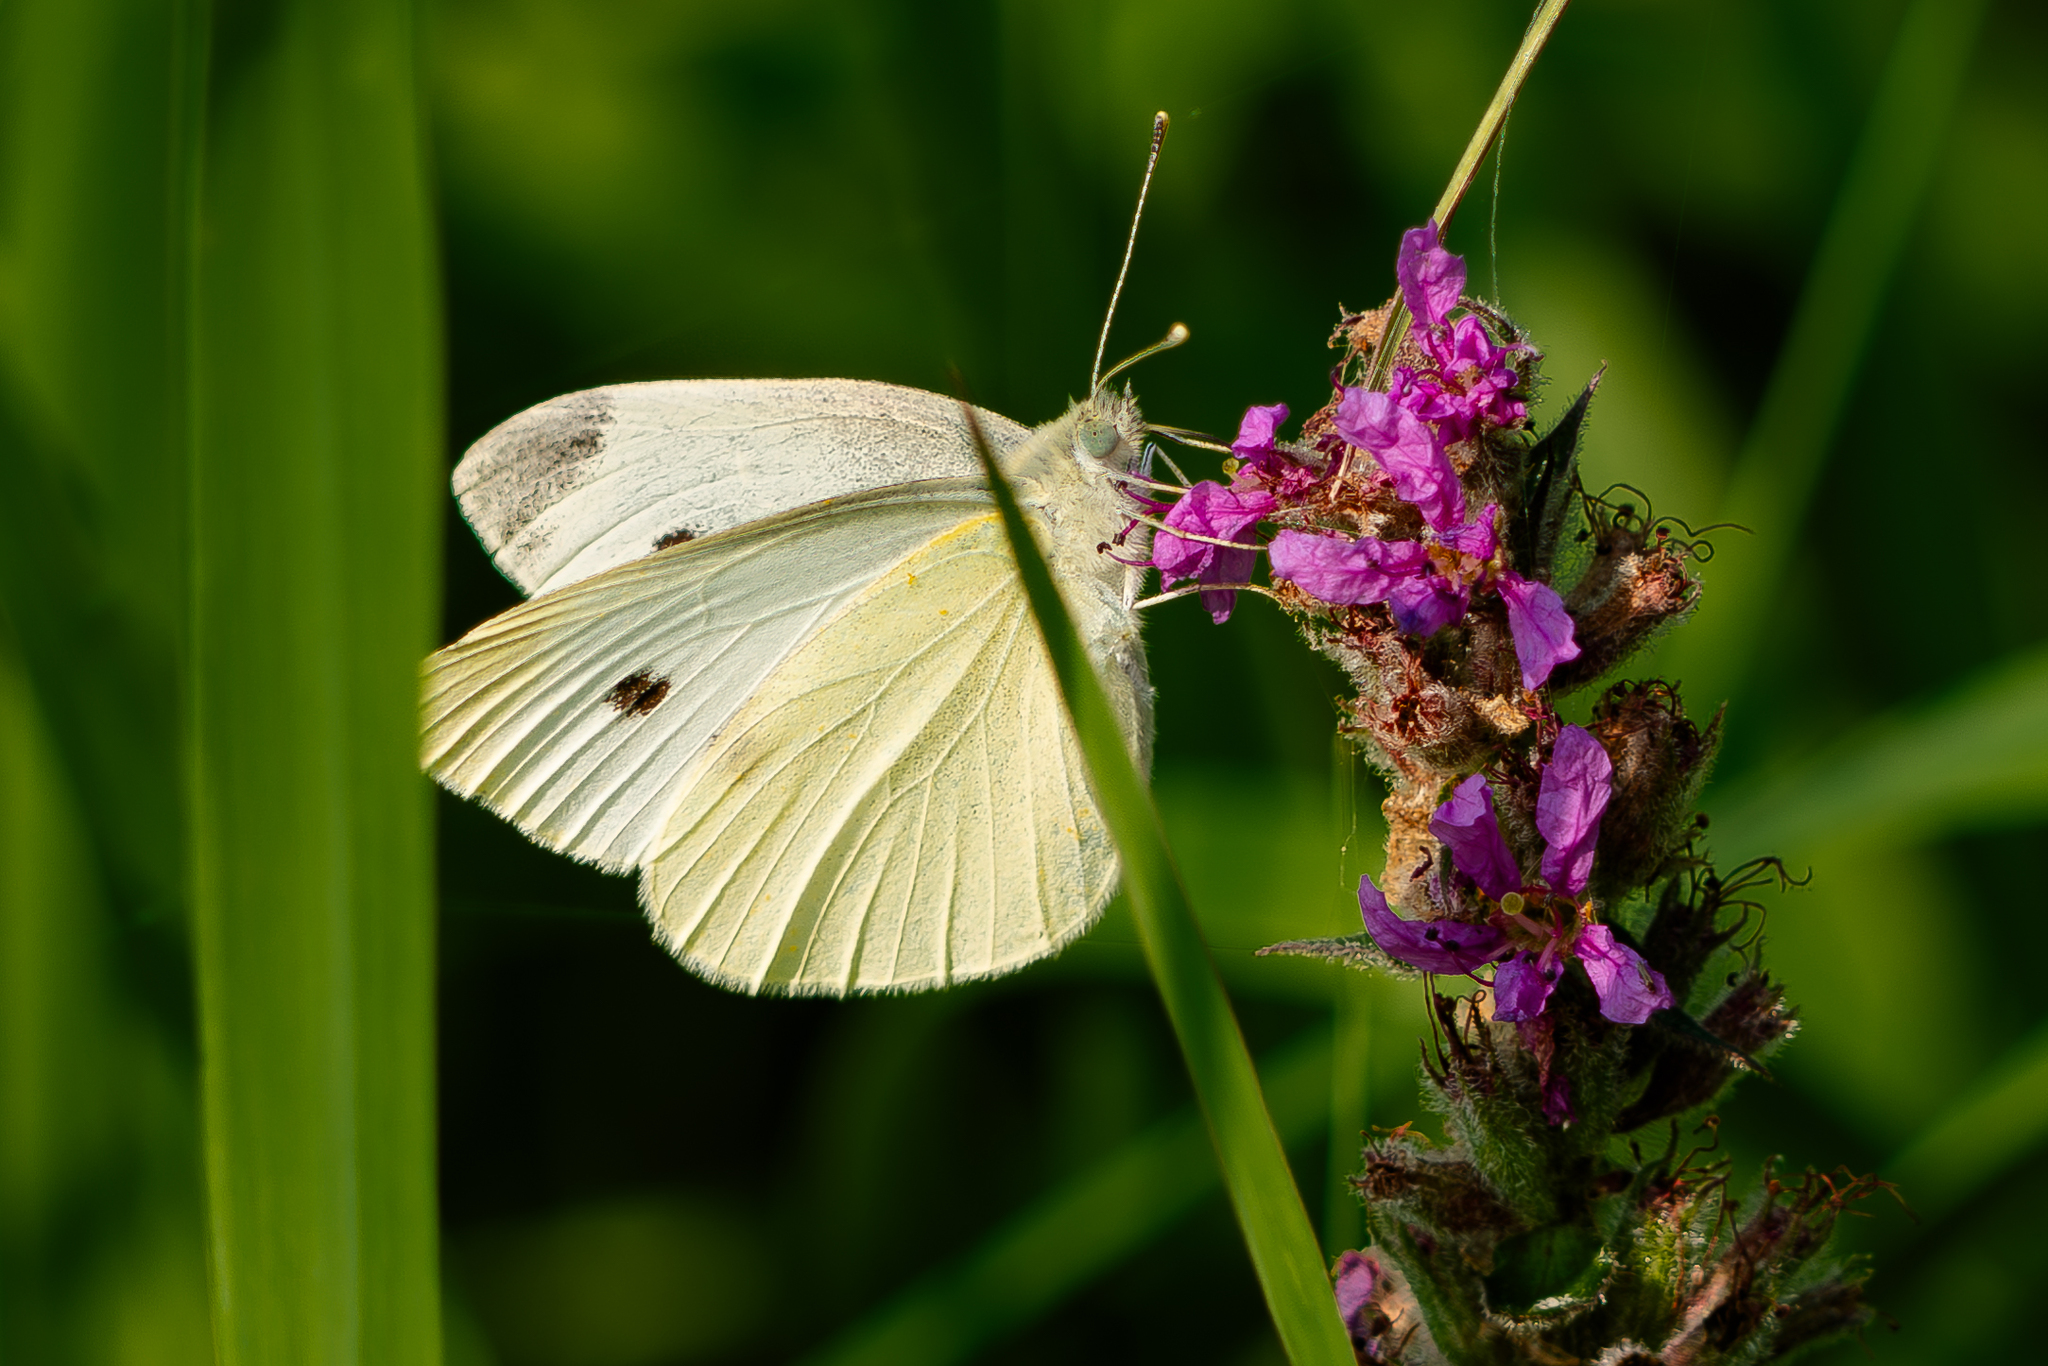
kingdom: Animalia
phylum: Arthropoda
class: Insecta
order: Lepidoptera
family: Pieridae
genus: Pieris
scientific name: Pieris rapae
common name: Small white
